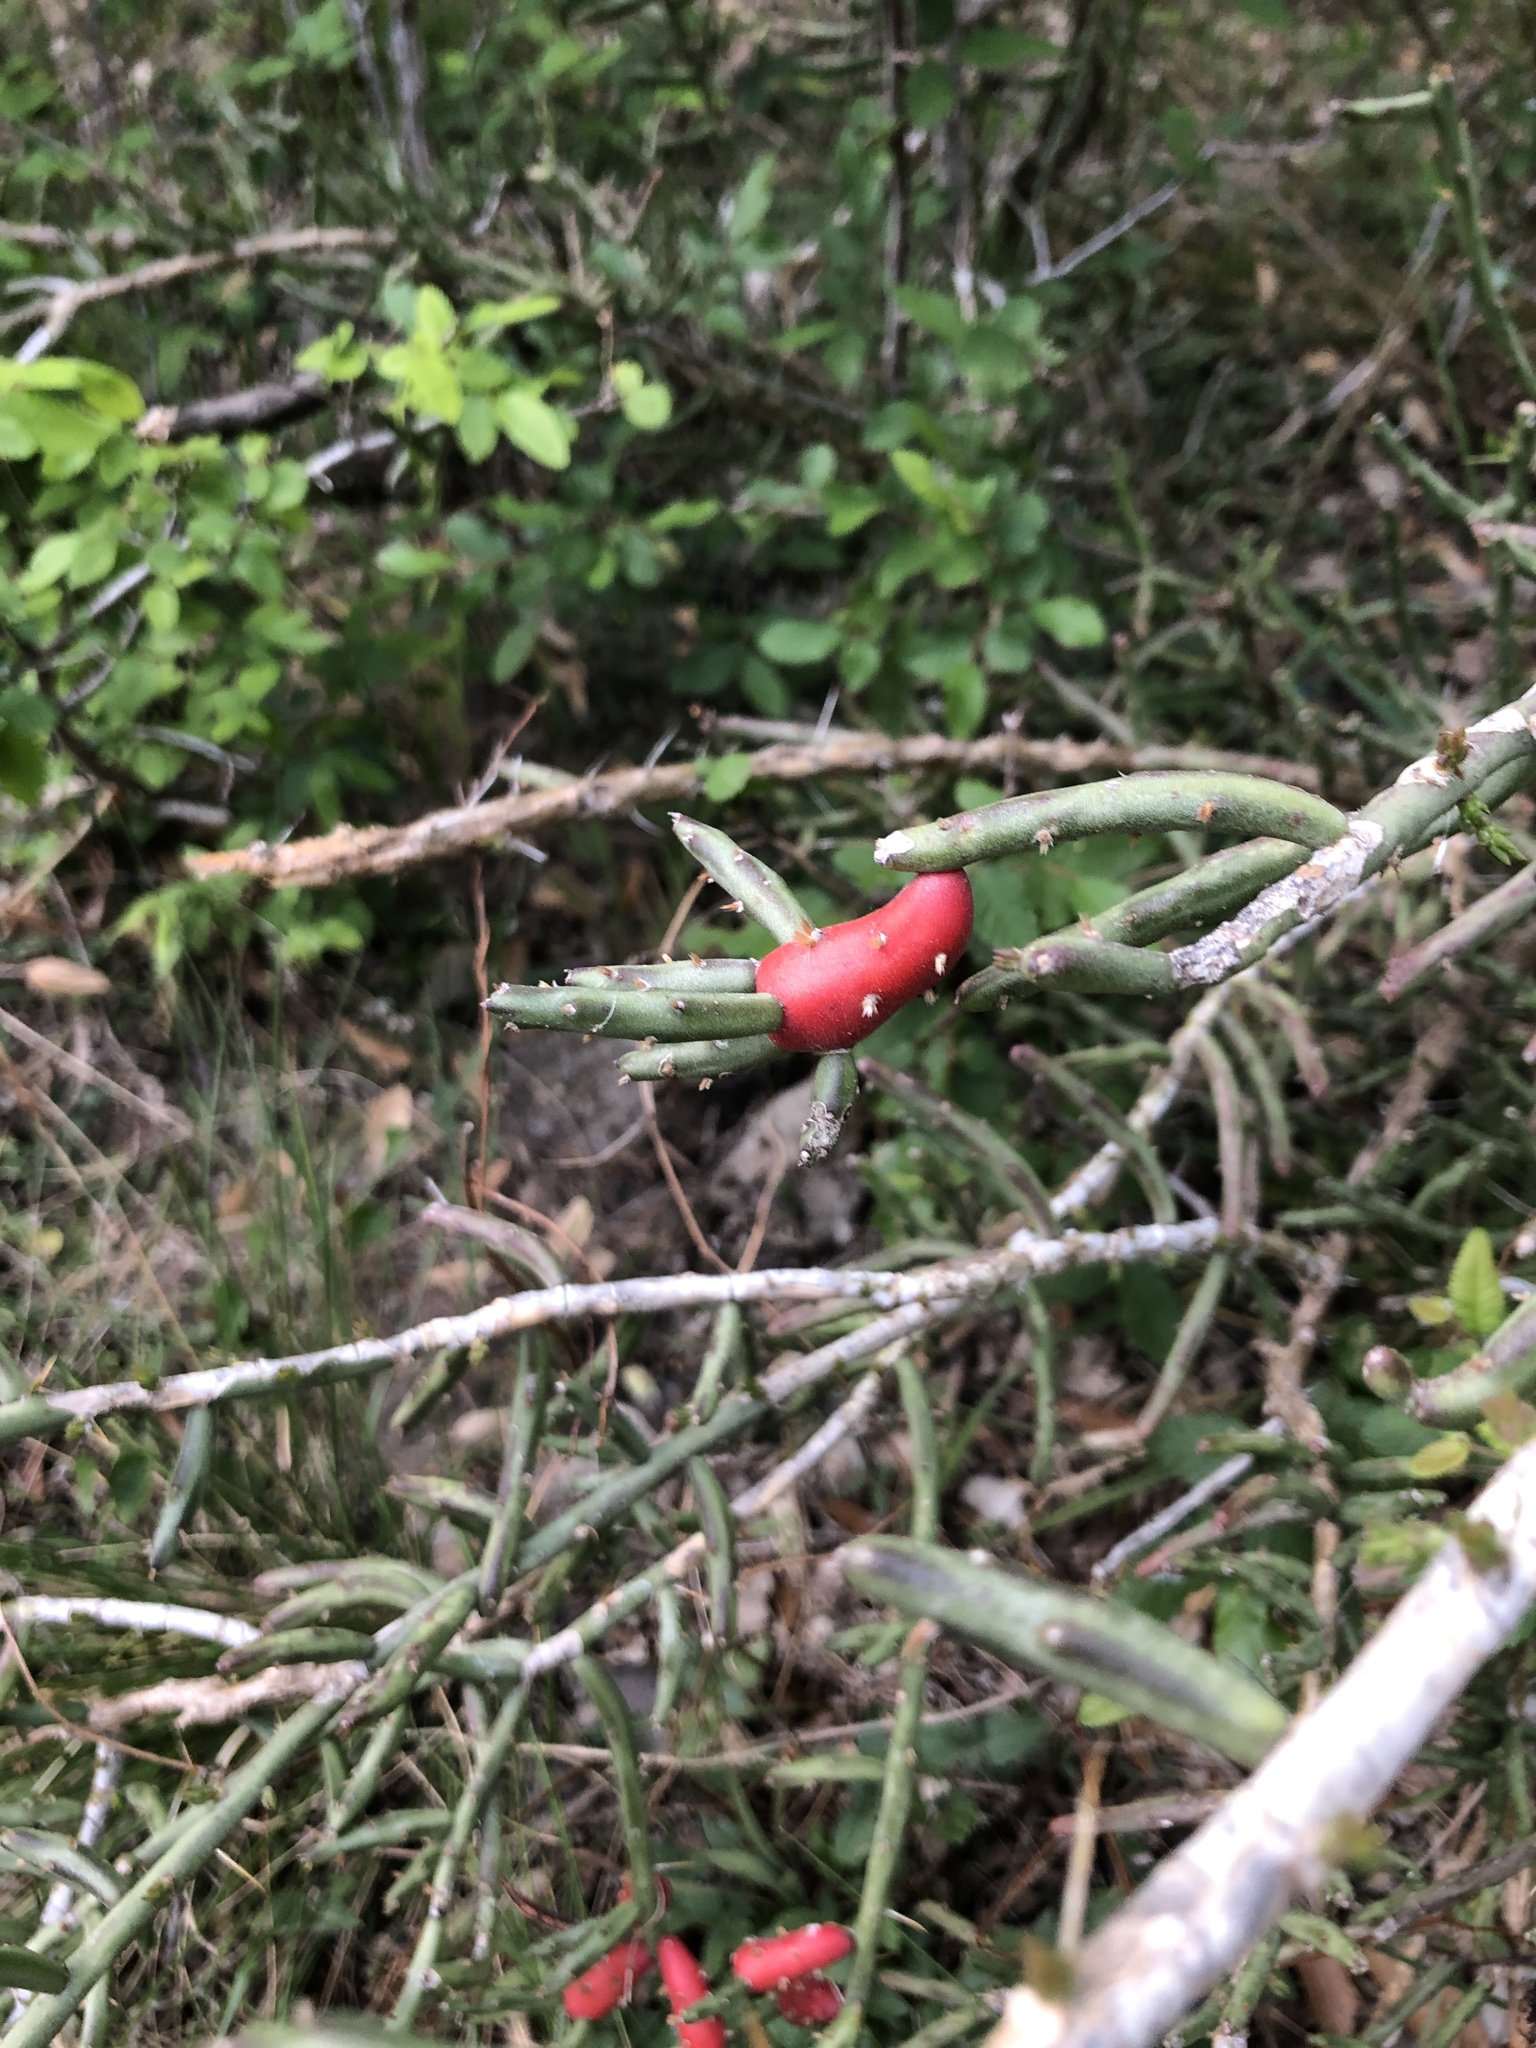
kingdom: Plantae
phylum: Tracheophyta
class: Magnoliopsida
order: Caryophyllales
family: Cactaceae
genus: Cylindropuntia
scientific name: Cylindropuntia leptocaulis
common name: Christmas cactus
